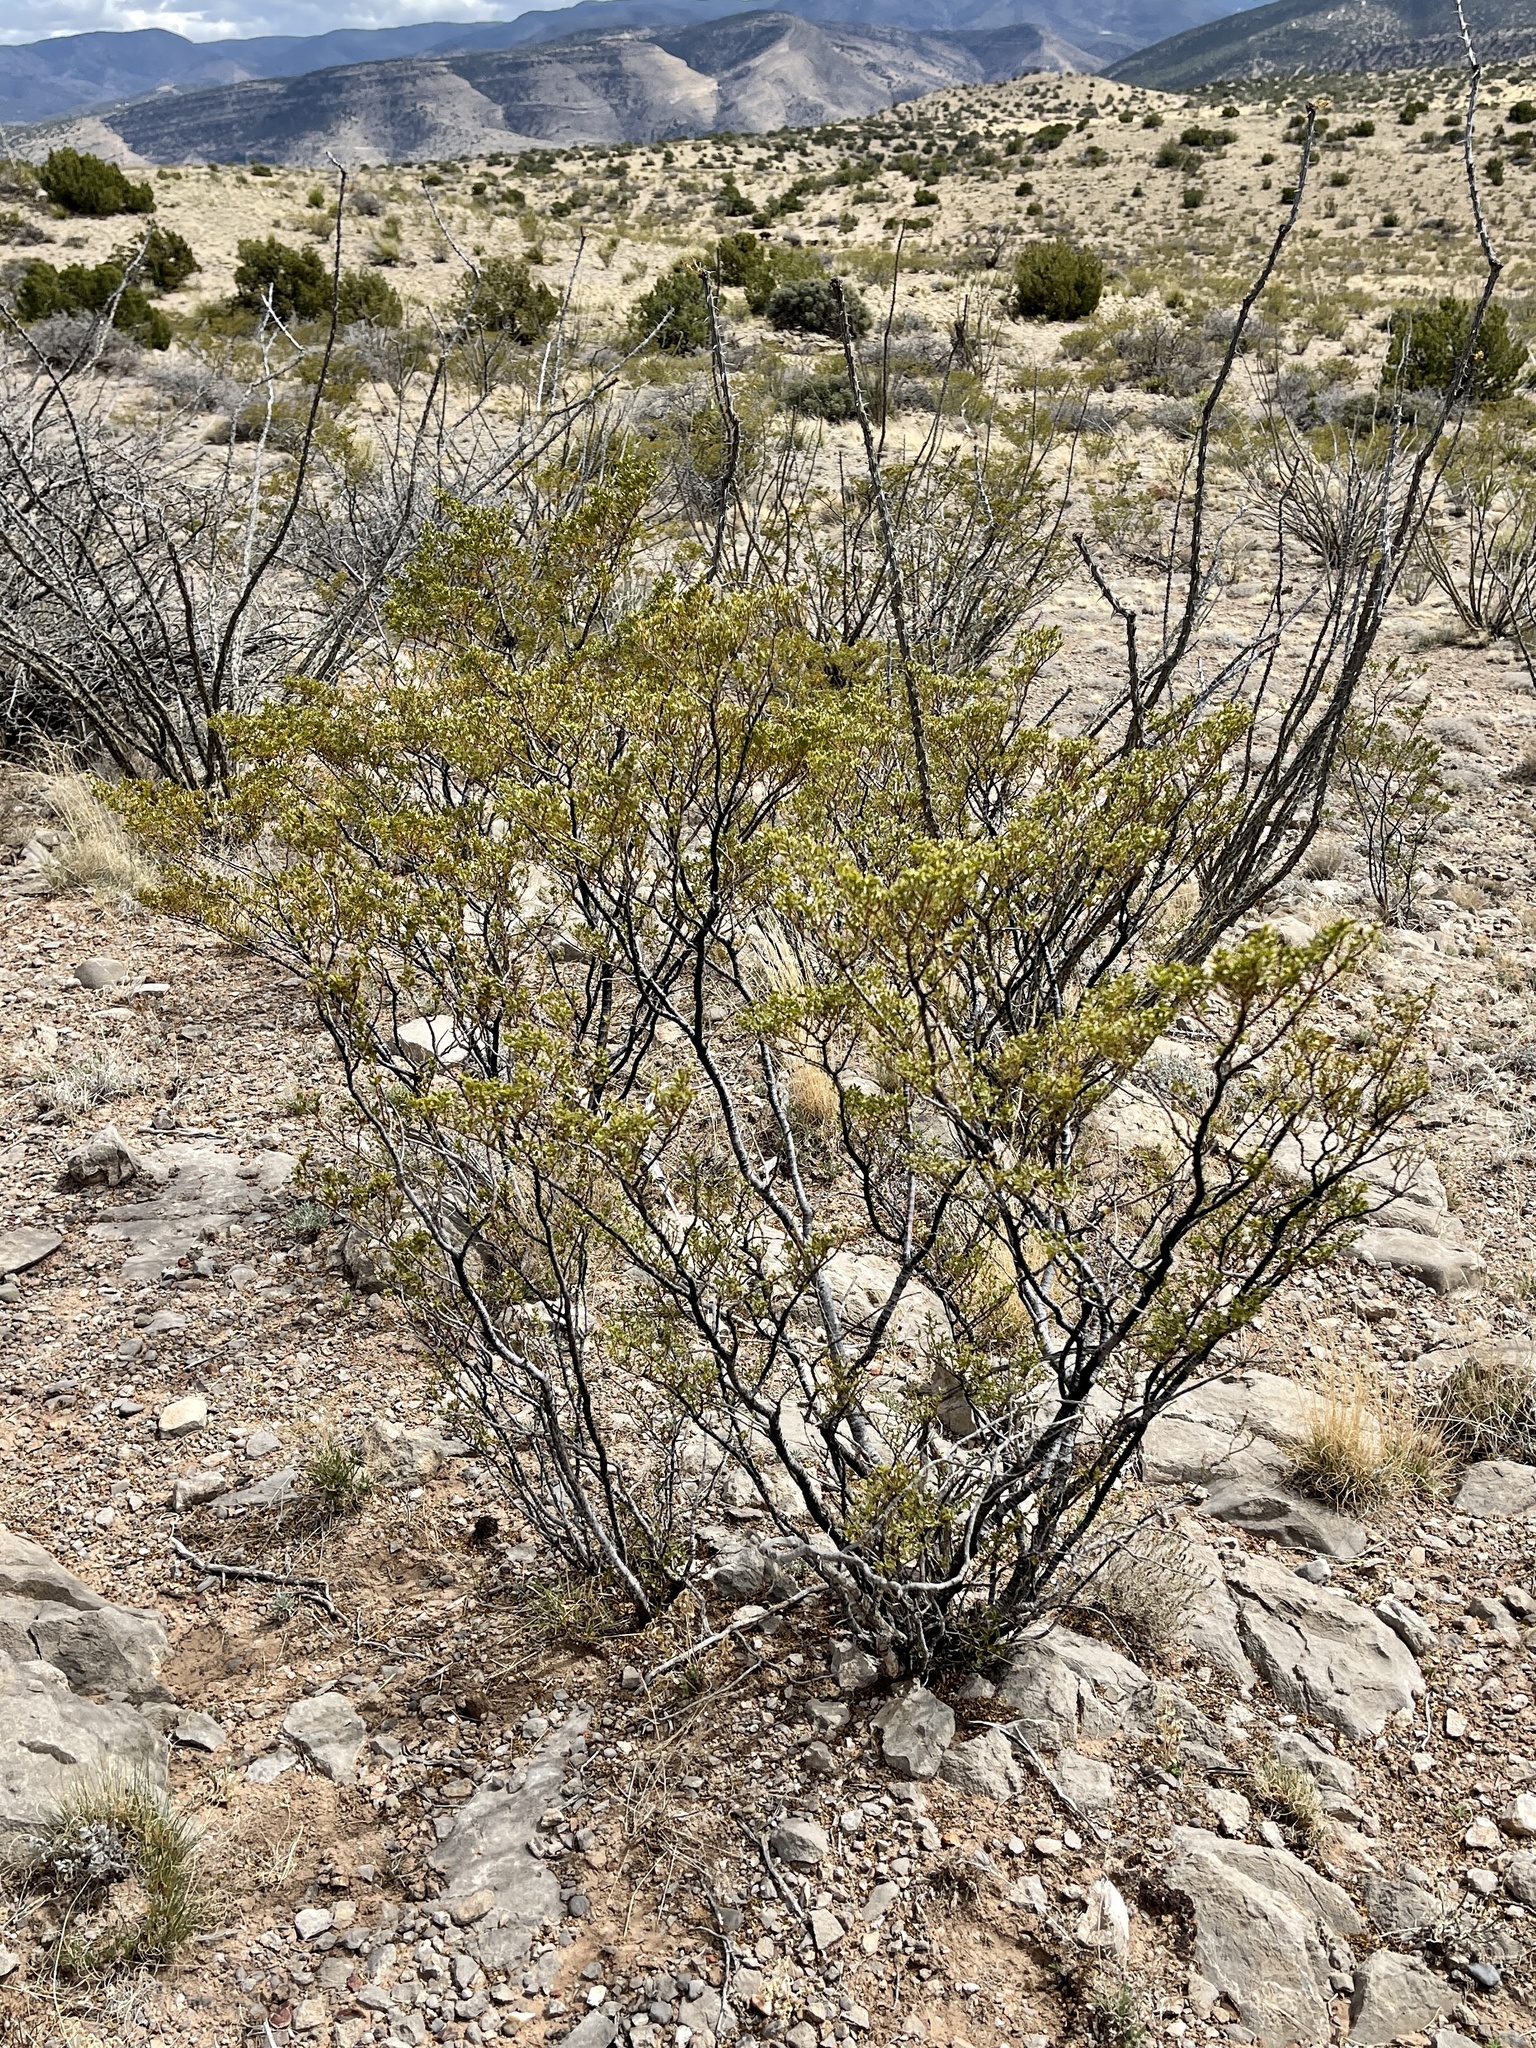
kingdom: Plantae
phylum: Tracheophyta
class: Magnoliopsida
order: Zygophyllales
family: Zygophyllaceae
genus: Larrea
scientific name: Larrea tridentata
